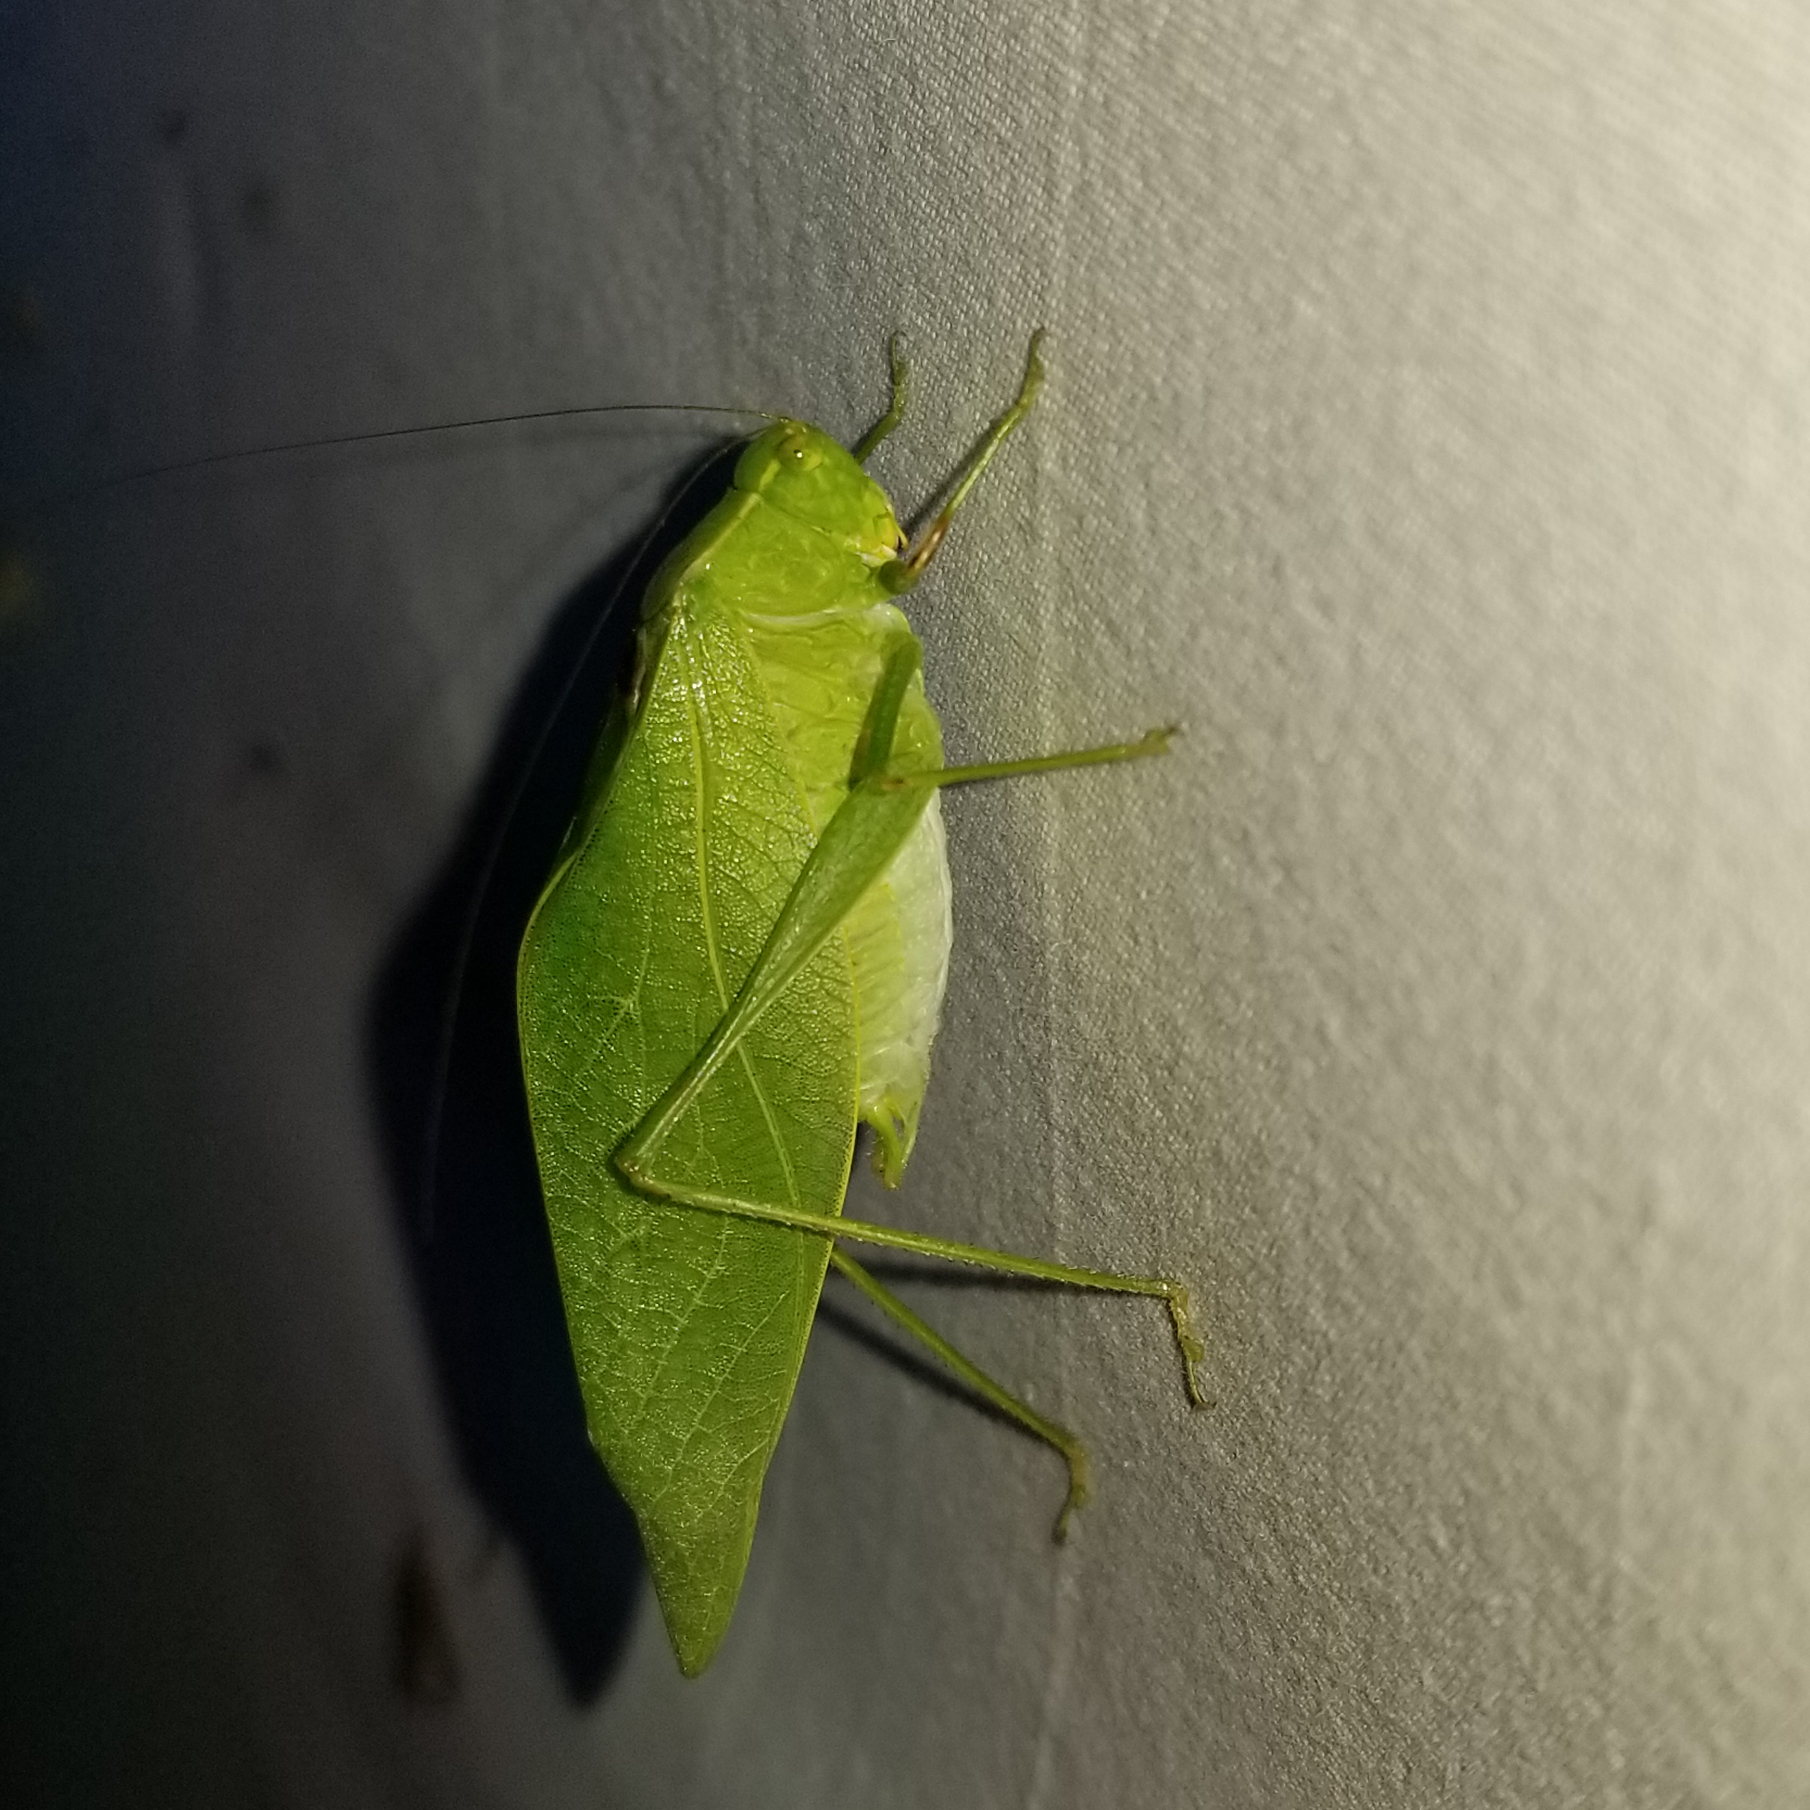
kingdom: Animalia
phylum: Arthropoda
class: Insecta
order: Orthoptera
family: Tettigoniidae
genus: Microcentrum
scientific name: Microcentrum retinerve
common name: Angular-winged katydid
